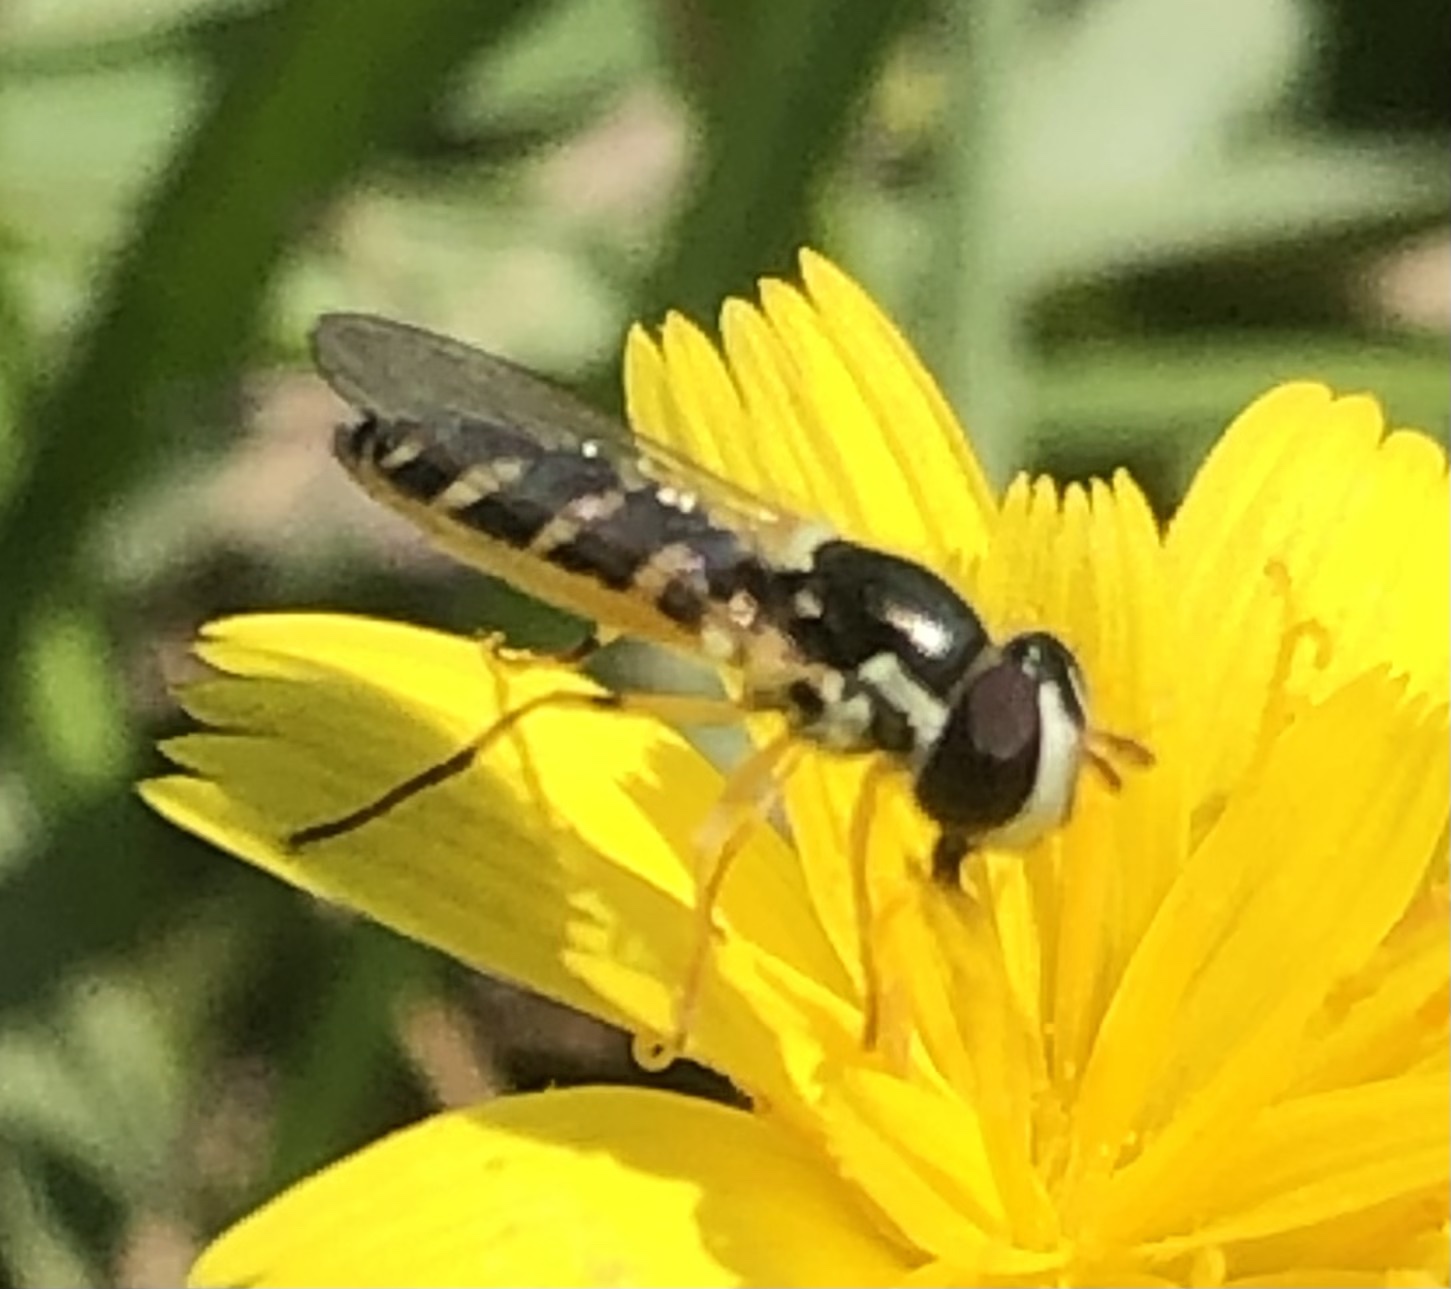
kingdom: Animalia
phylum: Arthropoda
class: Insecta
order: Diptera
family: Syrphidae
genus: Allograpta
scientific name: Allograpta hortensis
